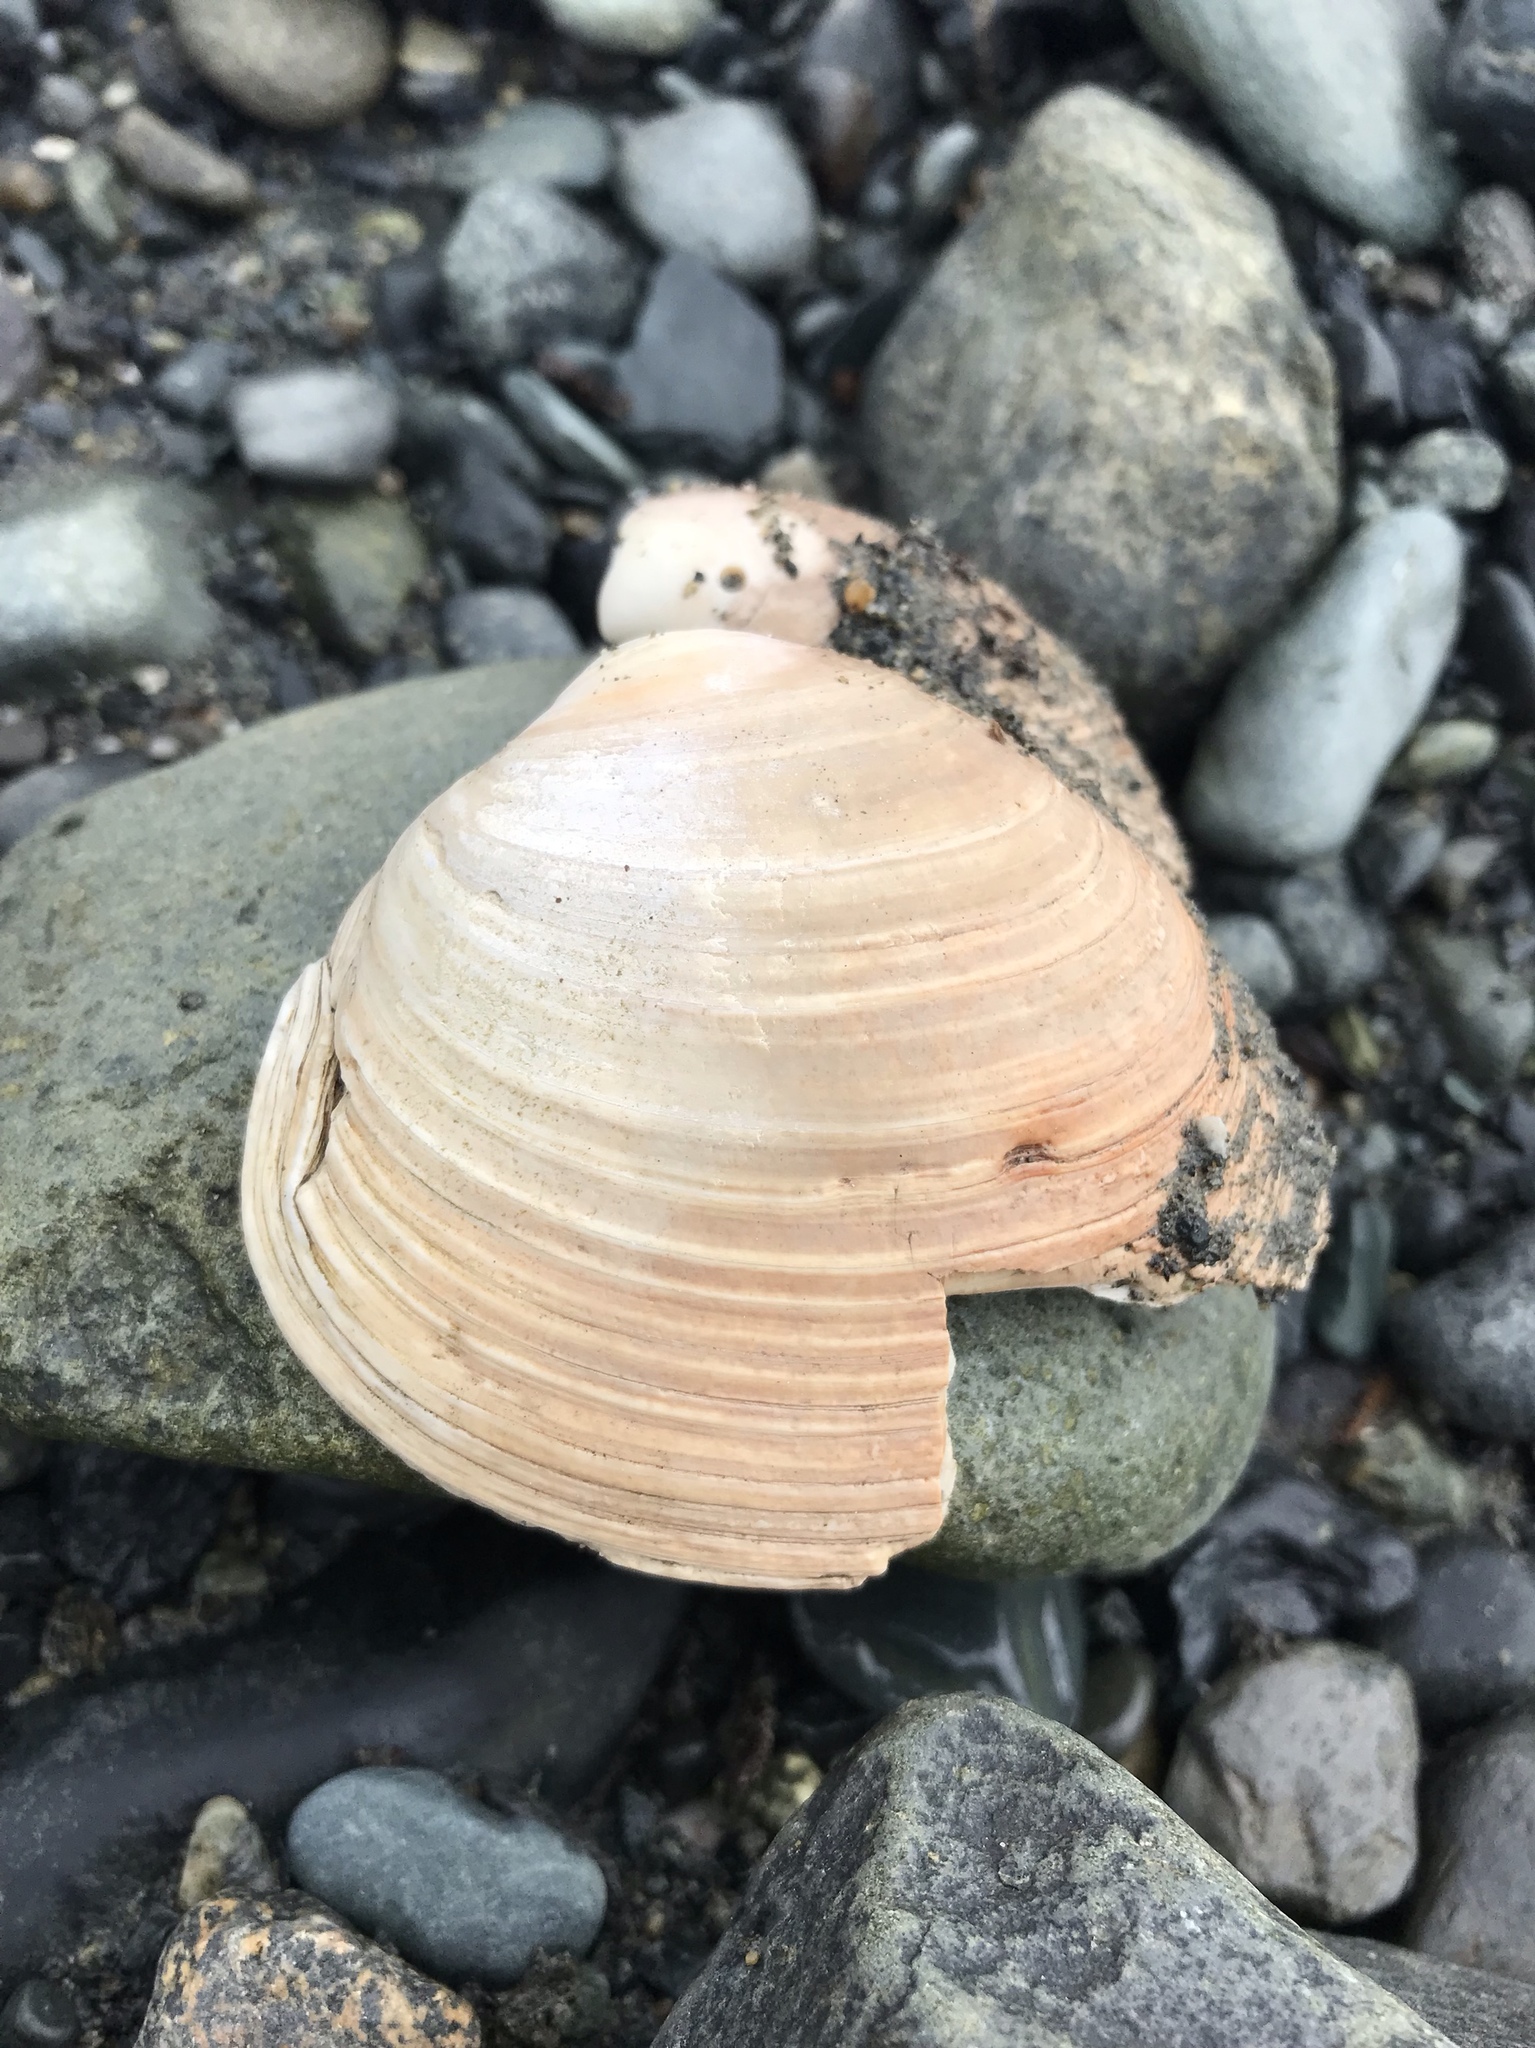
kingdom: Animalia
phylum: Mollusca
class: Bivalvia
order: Venerida
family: Veneridae
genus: Saxidomus
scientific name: Saxidomus gigantea
